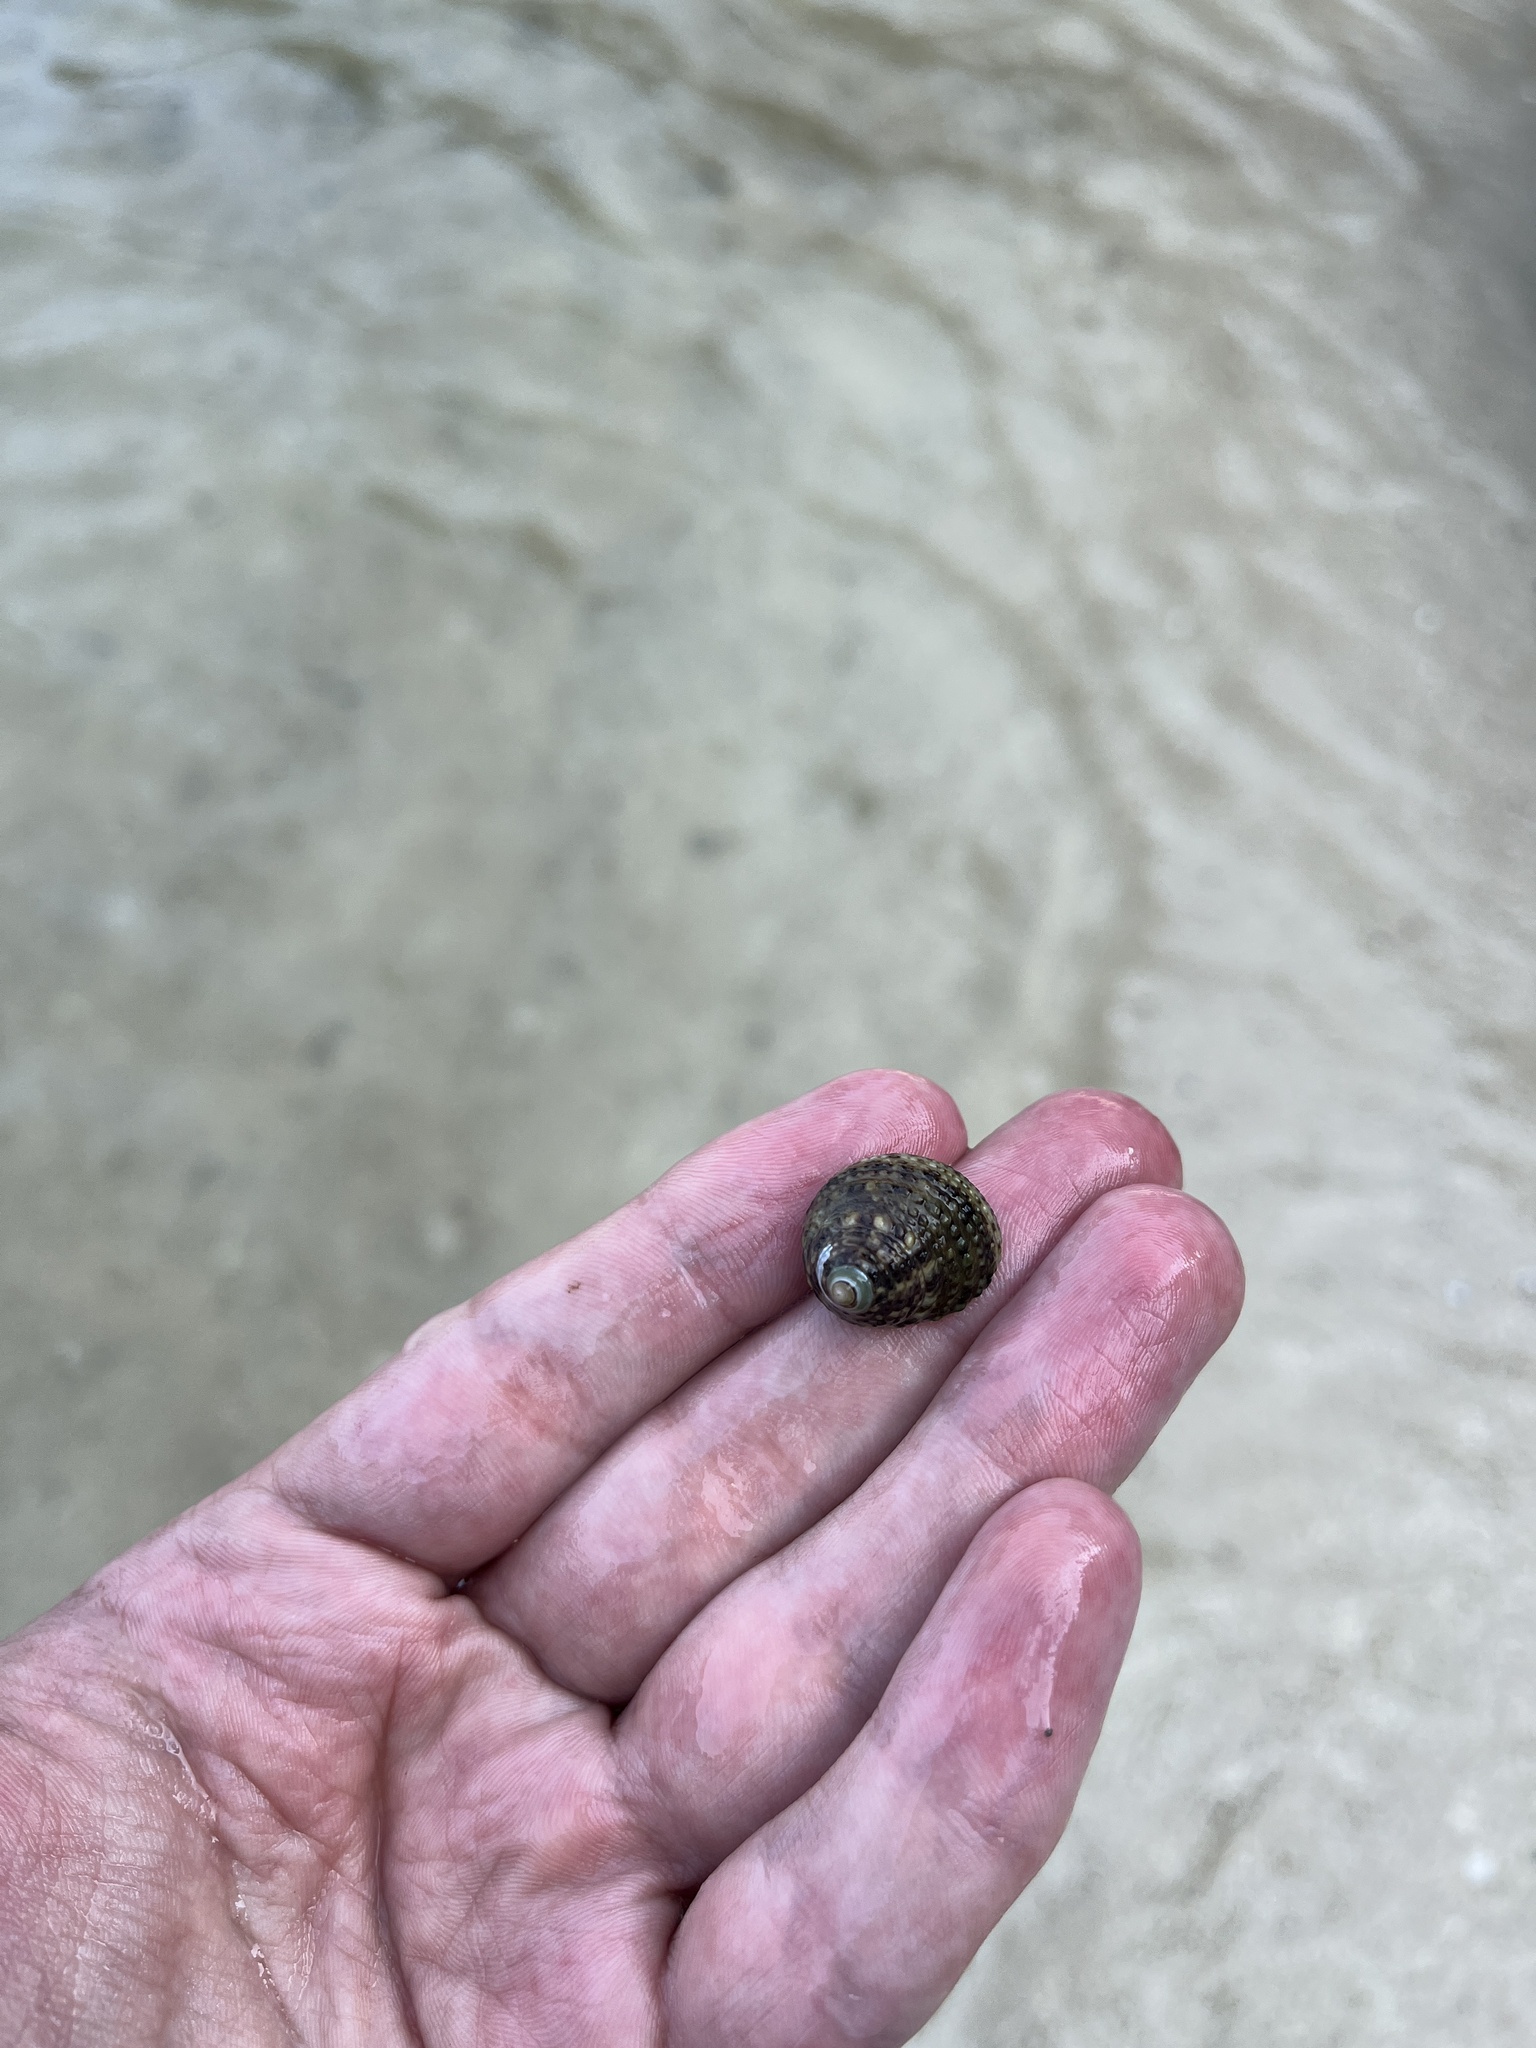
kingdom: Animalia
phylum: Mollusca
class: Gastropoda
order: Trochida
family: Trochidae
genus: Monodonta
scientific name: Monodonta labio
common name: Labio
